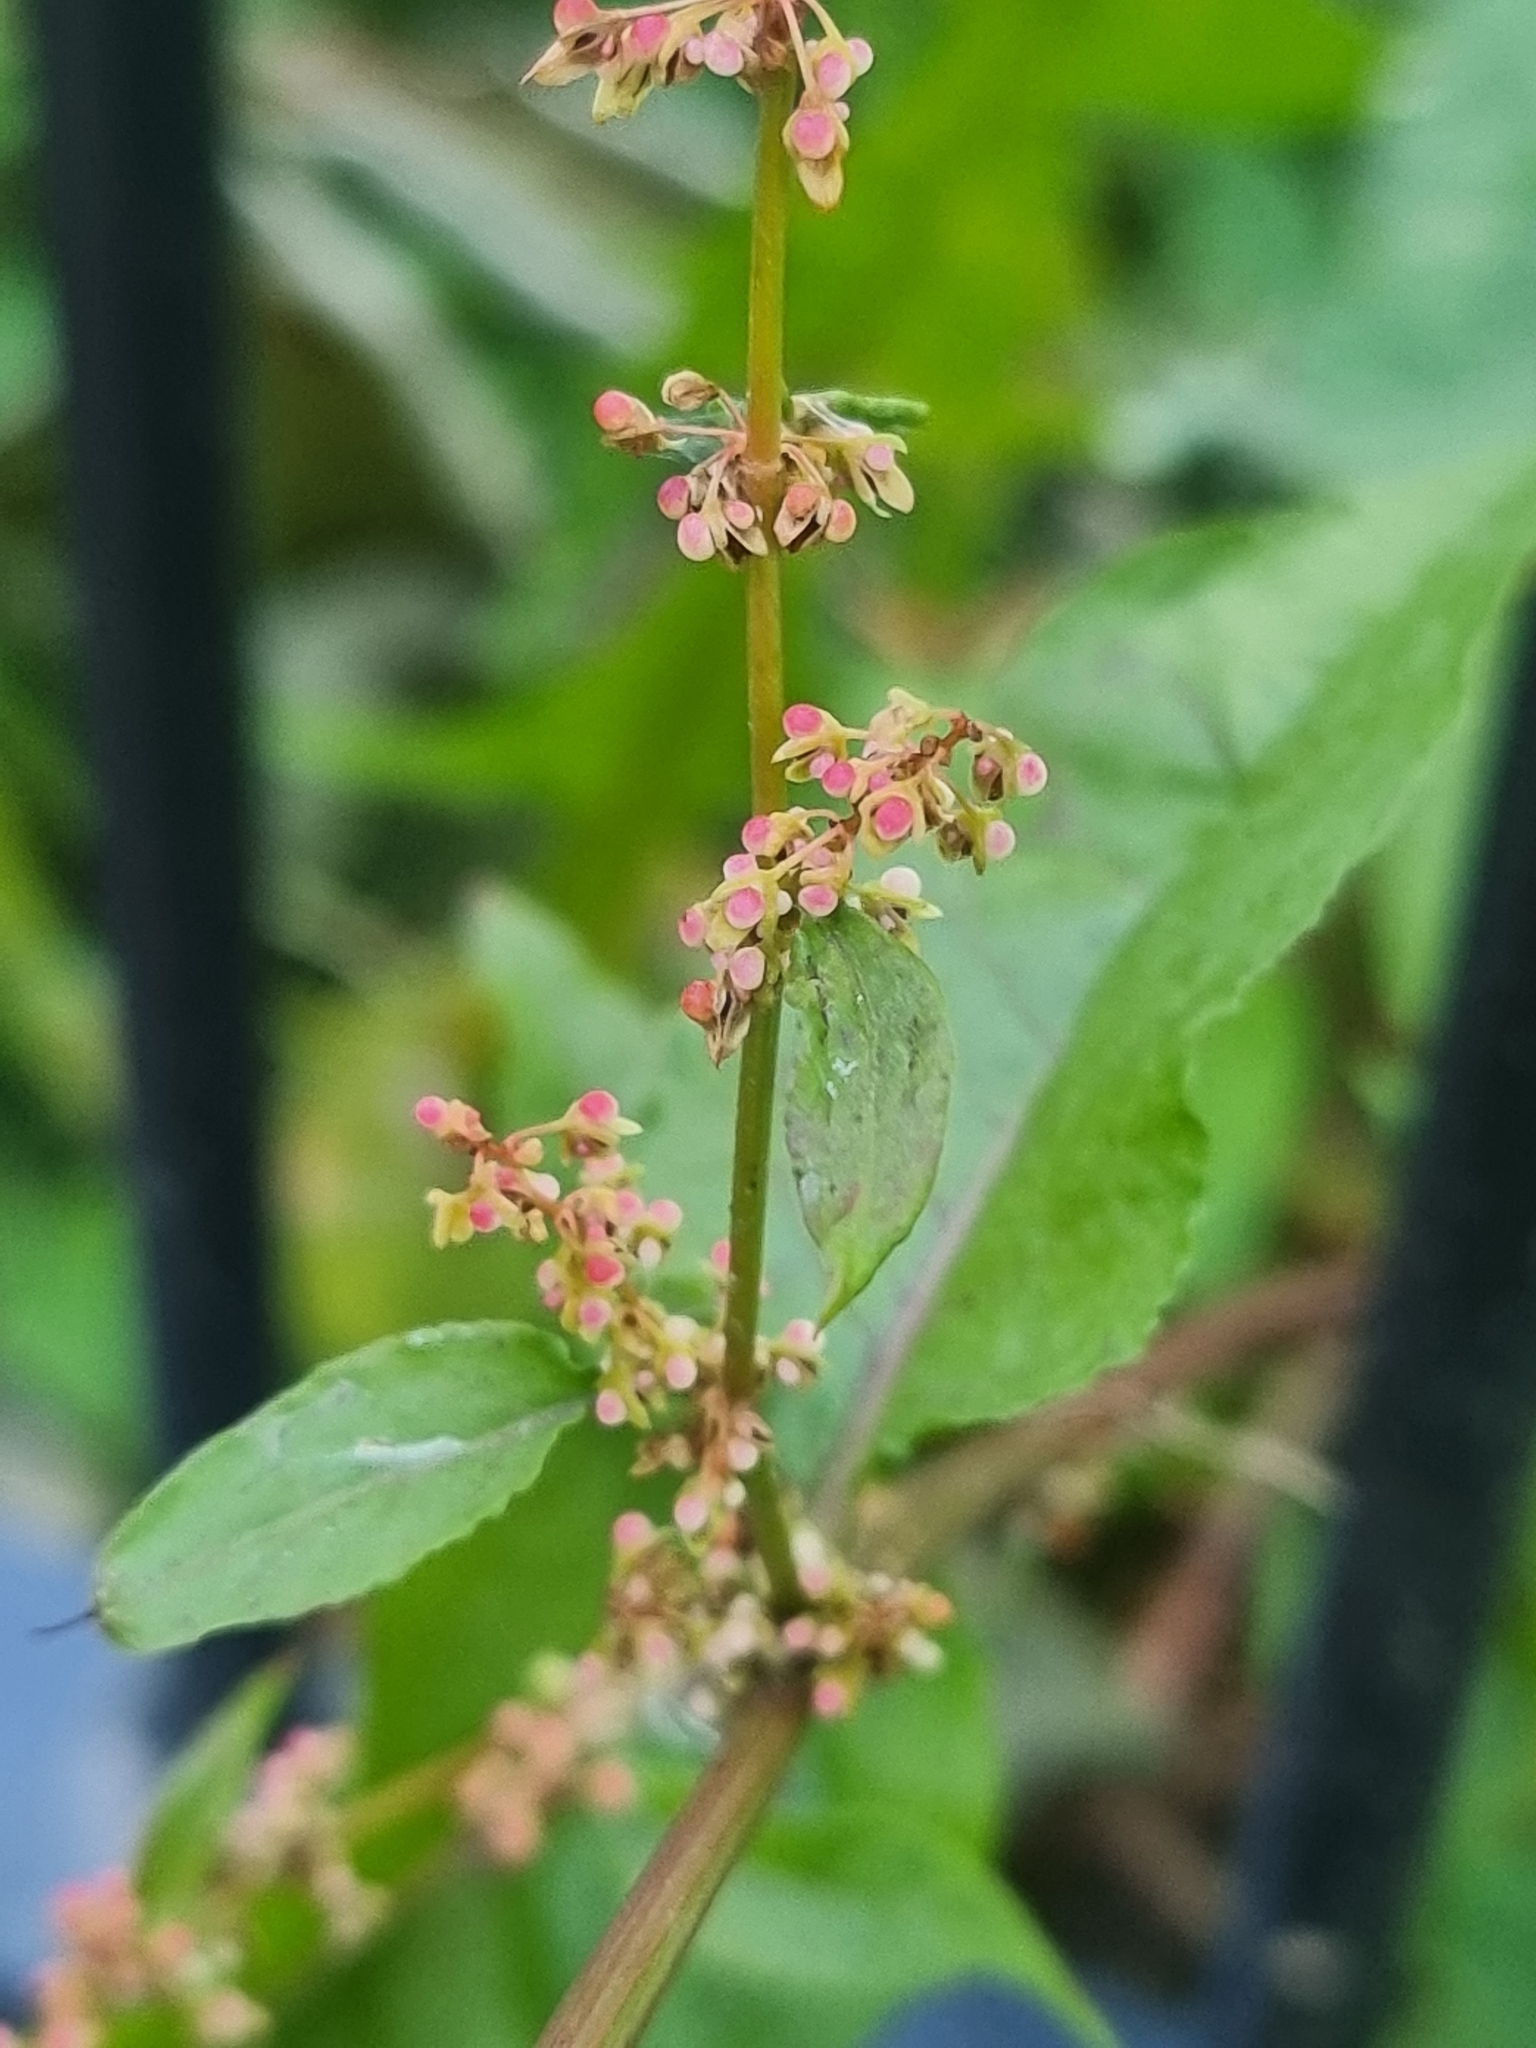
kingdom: Plantae
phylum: Tracheophyta
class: Magnoliopsida
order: Caryophyllales
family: Polygonaceae
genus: Rumex
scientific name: Rumex sanguineus
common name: Wood dock
